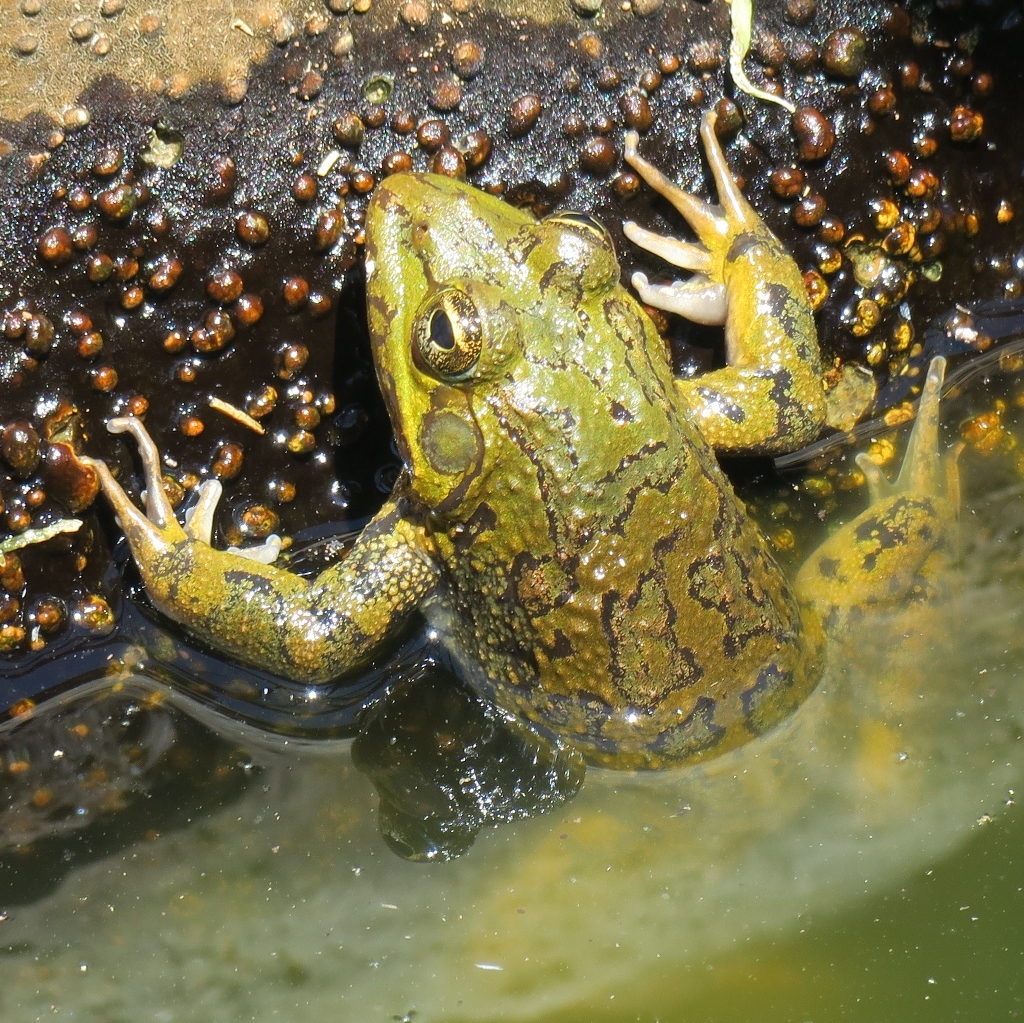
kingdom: Animalia
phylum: Chordata
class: Amphibia
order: Anura
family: Pyxicephalidae
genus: Amietia
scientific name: Amietia poyntoni
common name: Poynton's river frog
